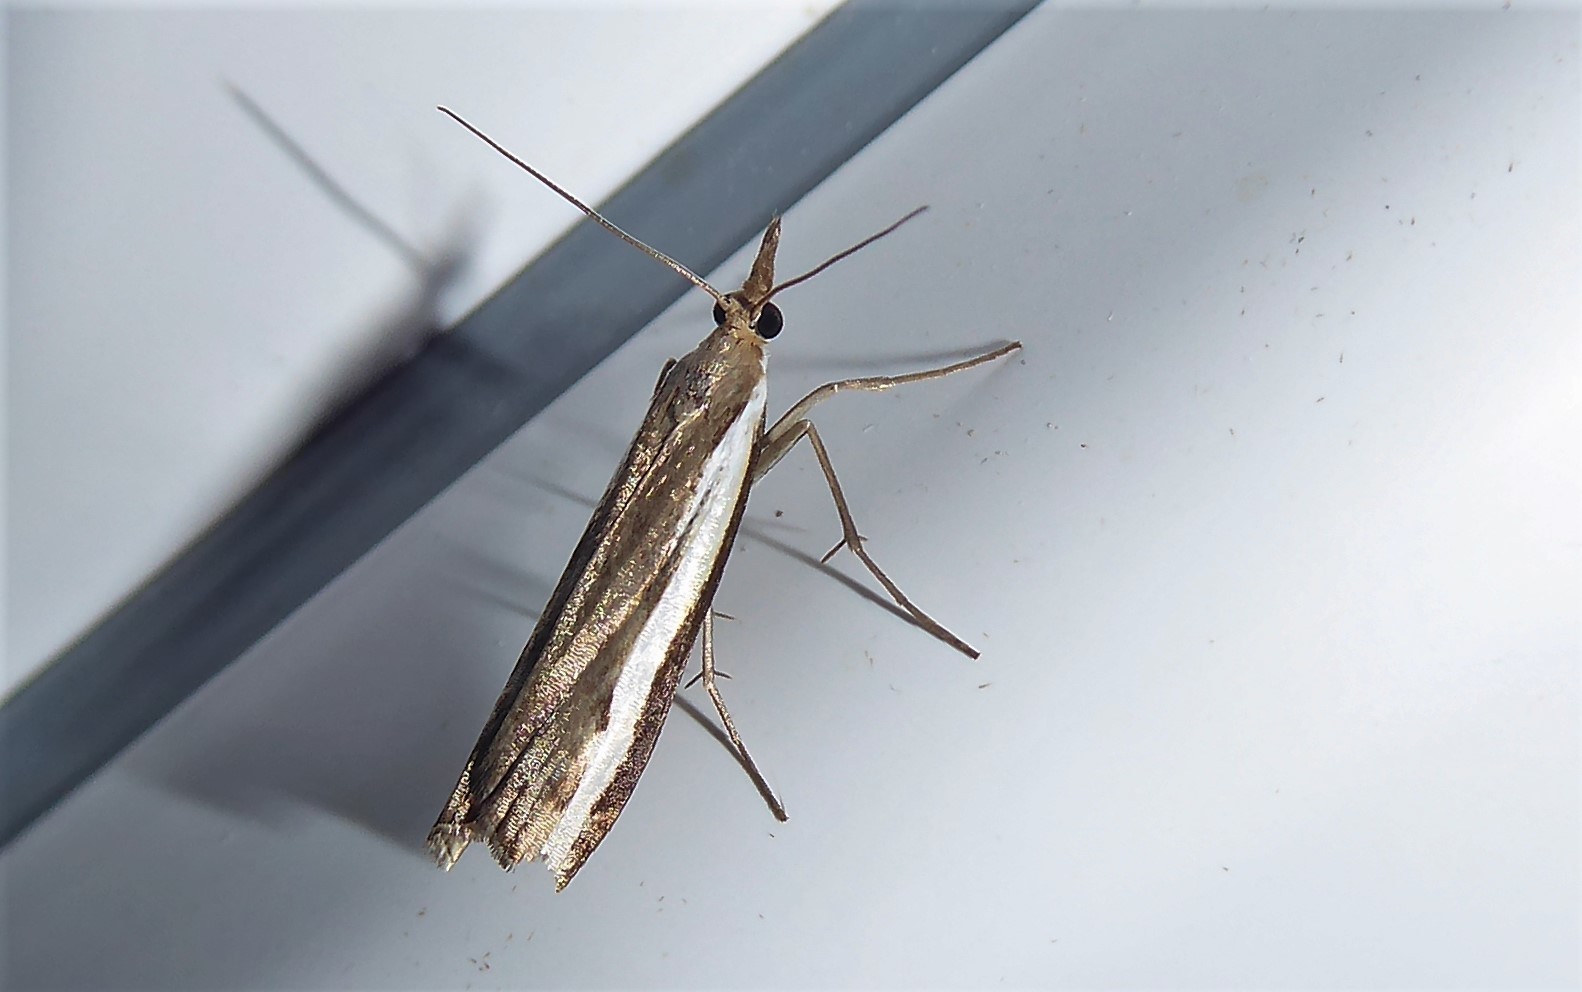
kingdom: Animalia
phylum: Arthropoda
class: Insecta
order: Lepidoptera
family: Crambidae
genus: Orocrambus
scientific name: Orocrambus flexuosellus
